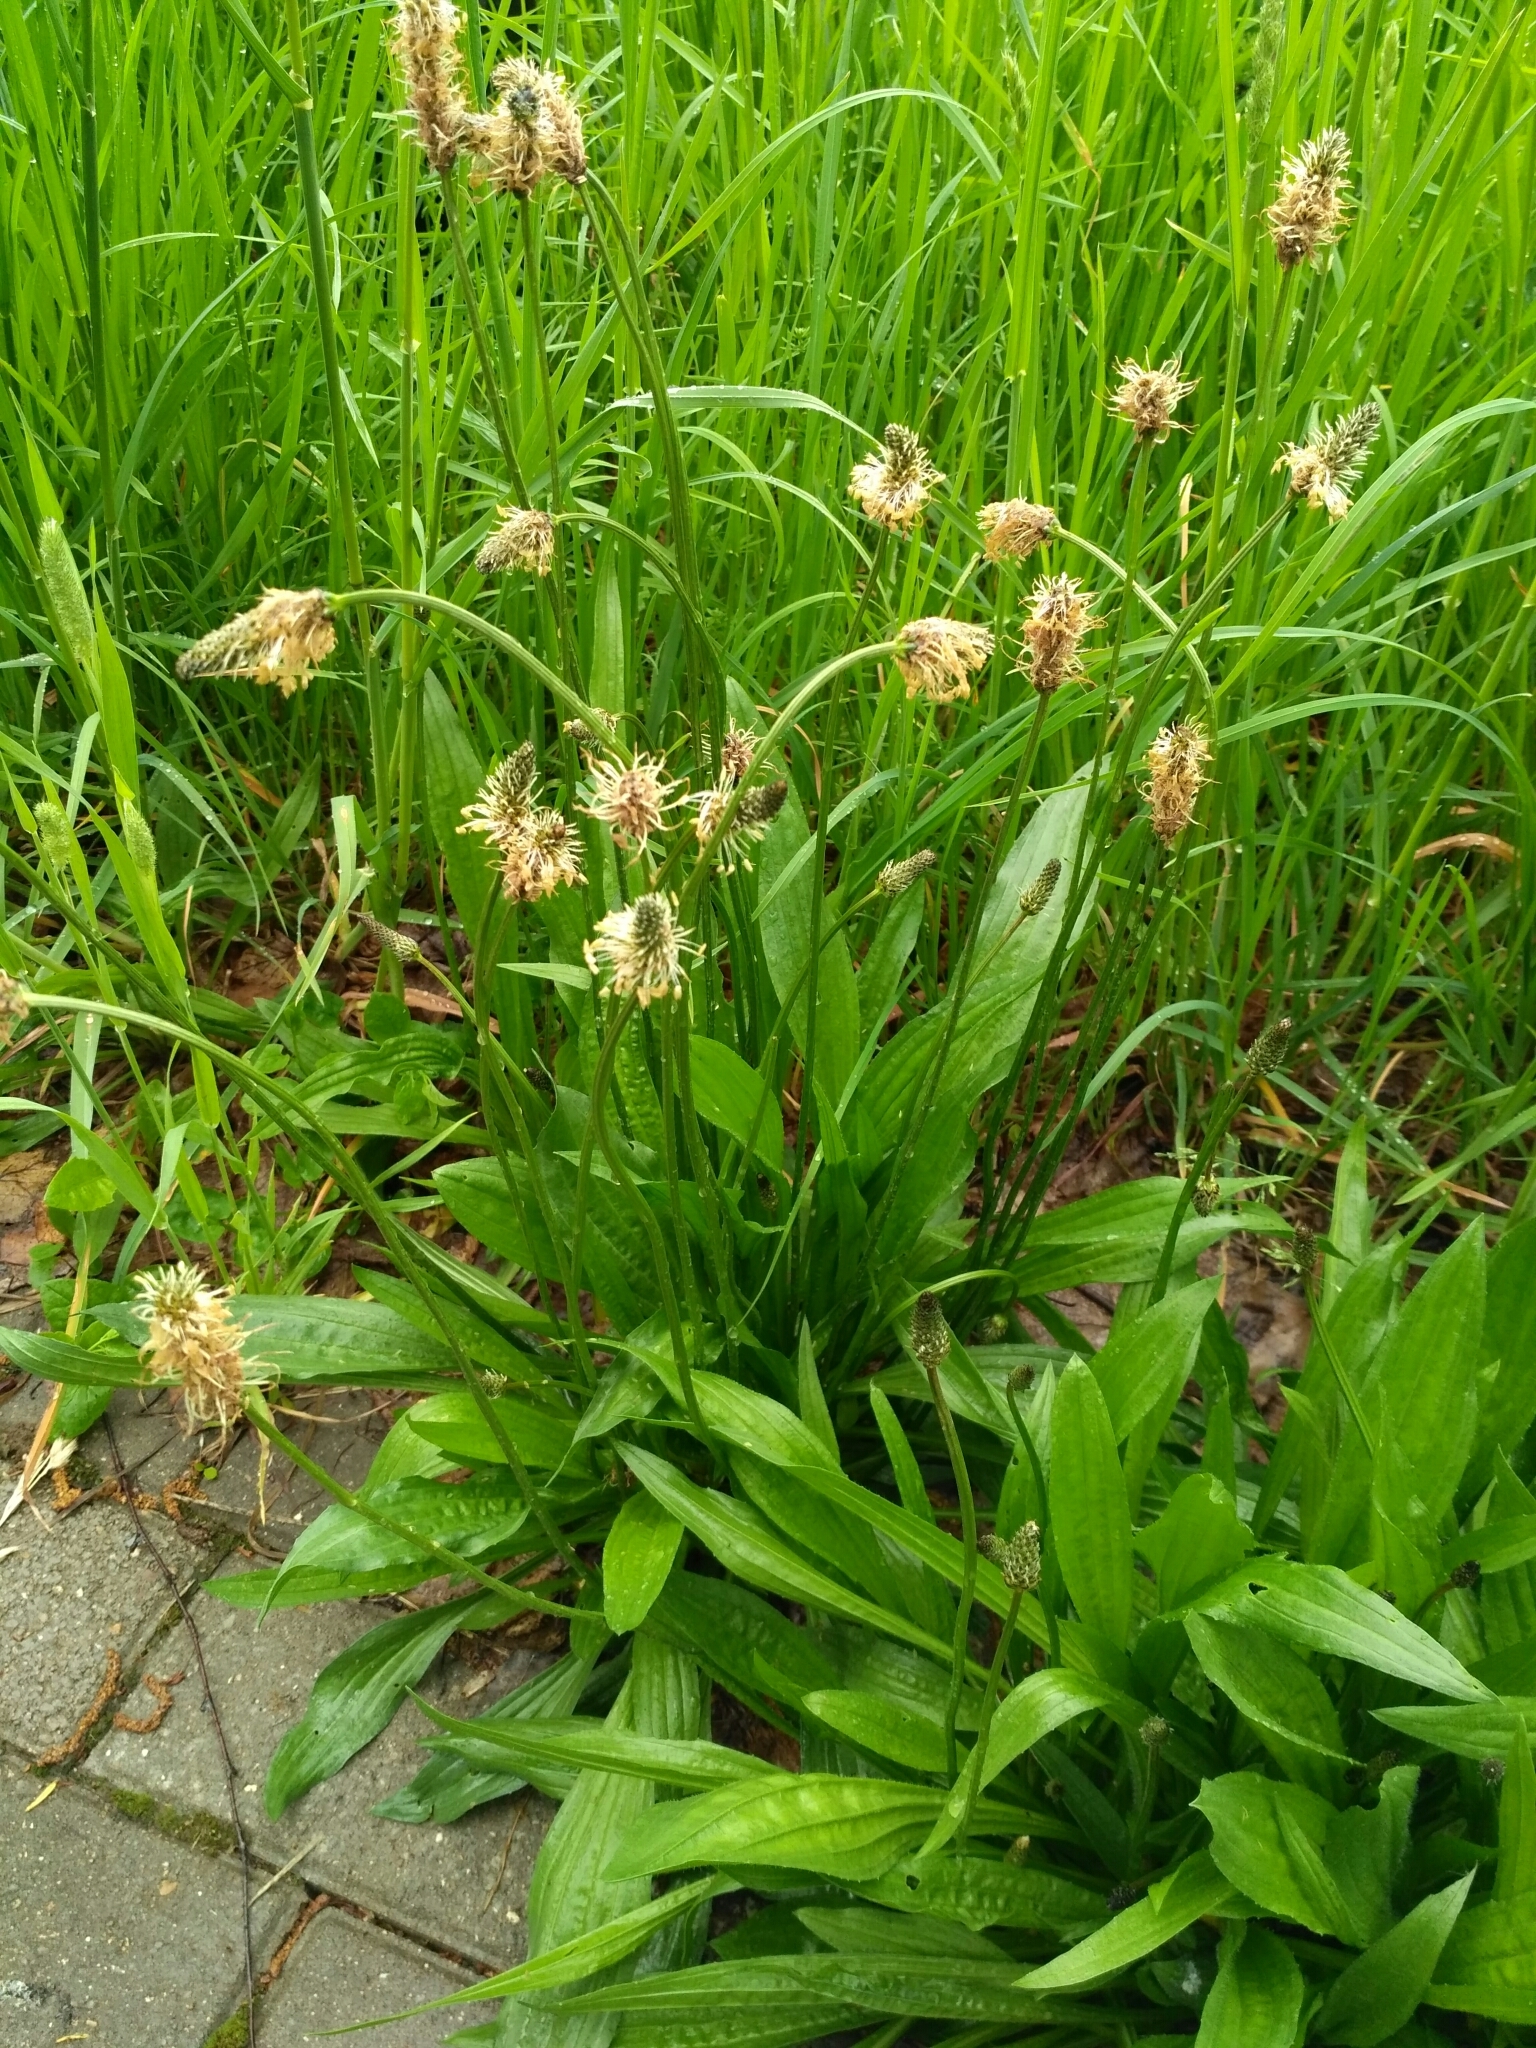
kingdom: Plantae
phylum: Tracheophyta
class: Magnoliopsida
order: Lamiales
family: Plantaginaceae
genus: Plantago
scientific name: Plantago lanceolata
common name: Ribwort plantain
